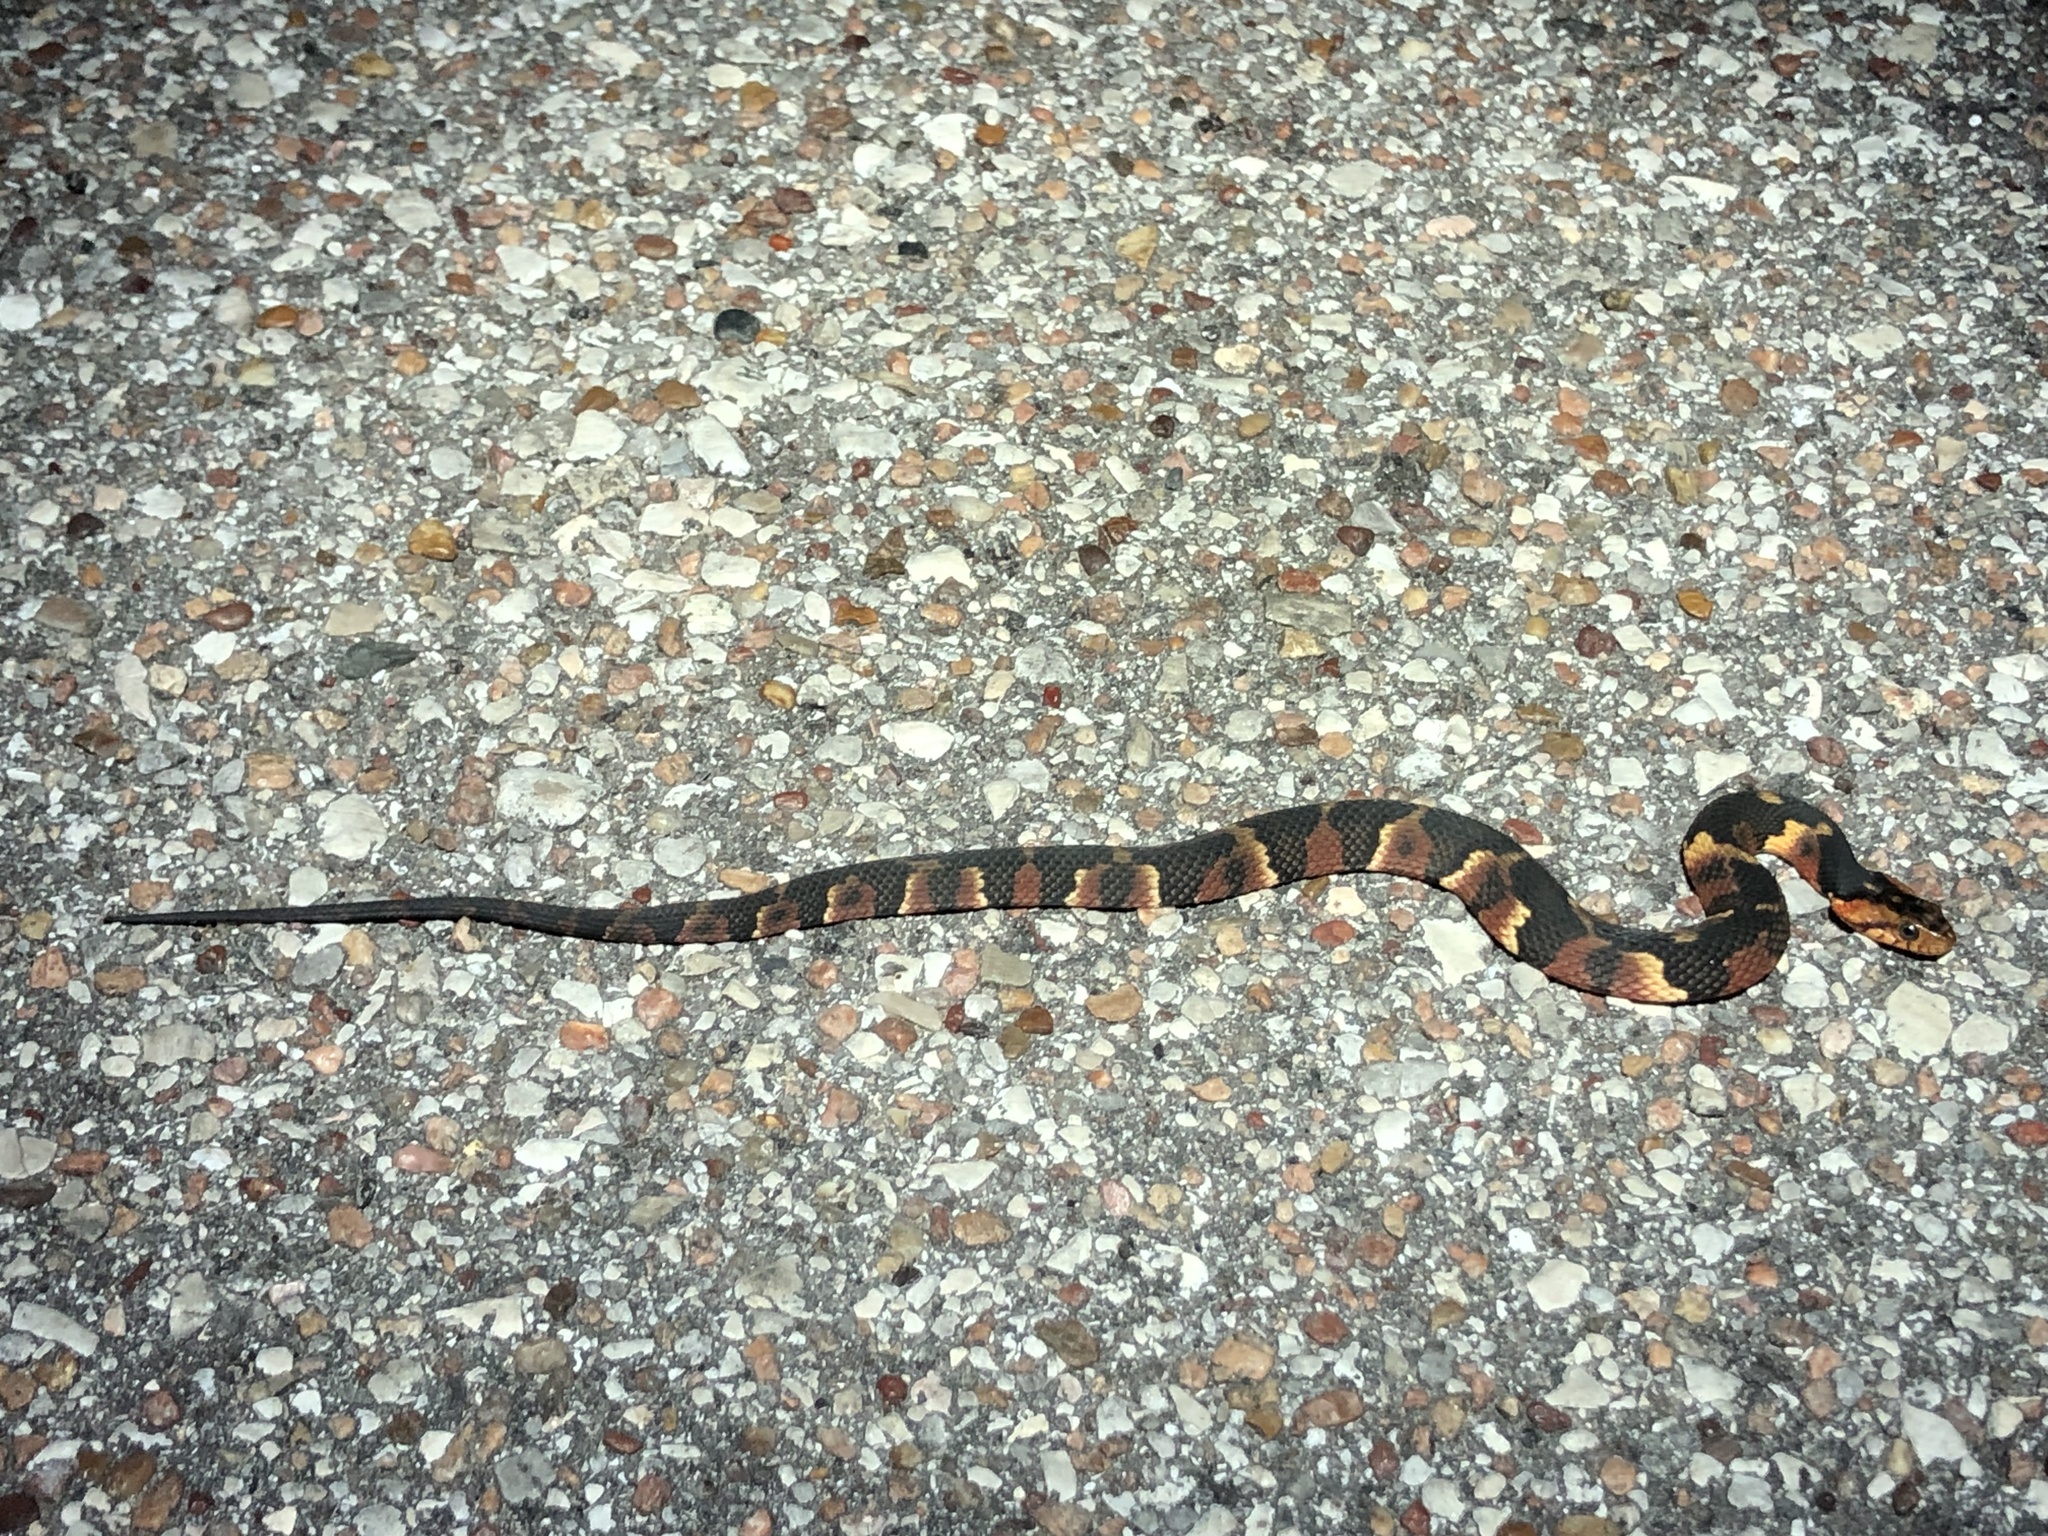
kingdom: Animalia
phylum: Chordata
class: Squamata
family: Colubridae
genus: Nerodia
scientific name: Nerodia fasciata
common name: Southern water snake
